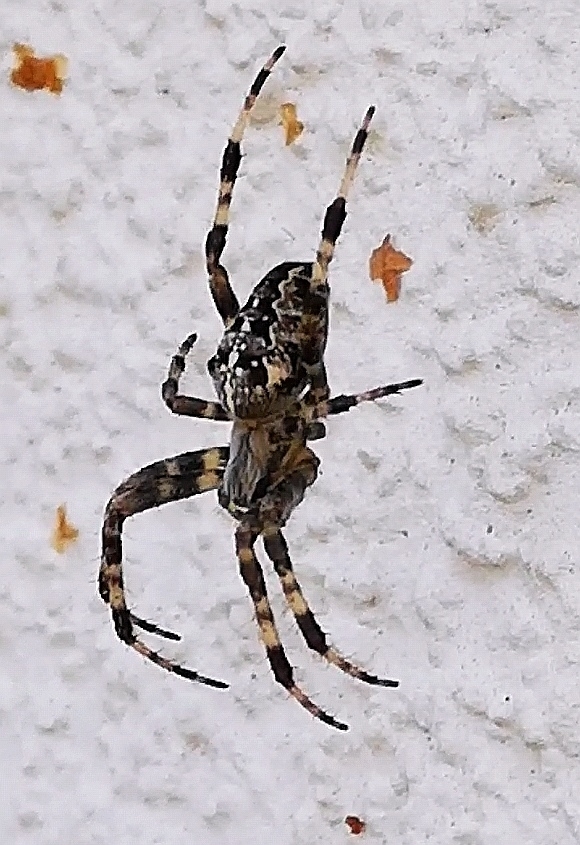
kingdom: Animalia
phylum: Arthropoda
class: Arachnida
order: Araneae
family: Araneidae
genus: Araneus
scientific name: Araneus diadematus
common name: Cross orbweaver
